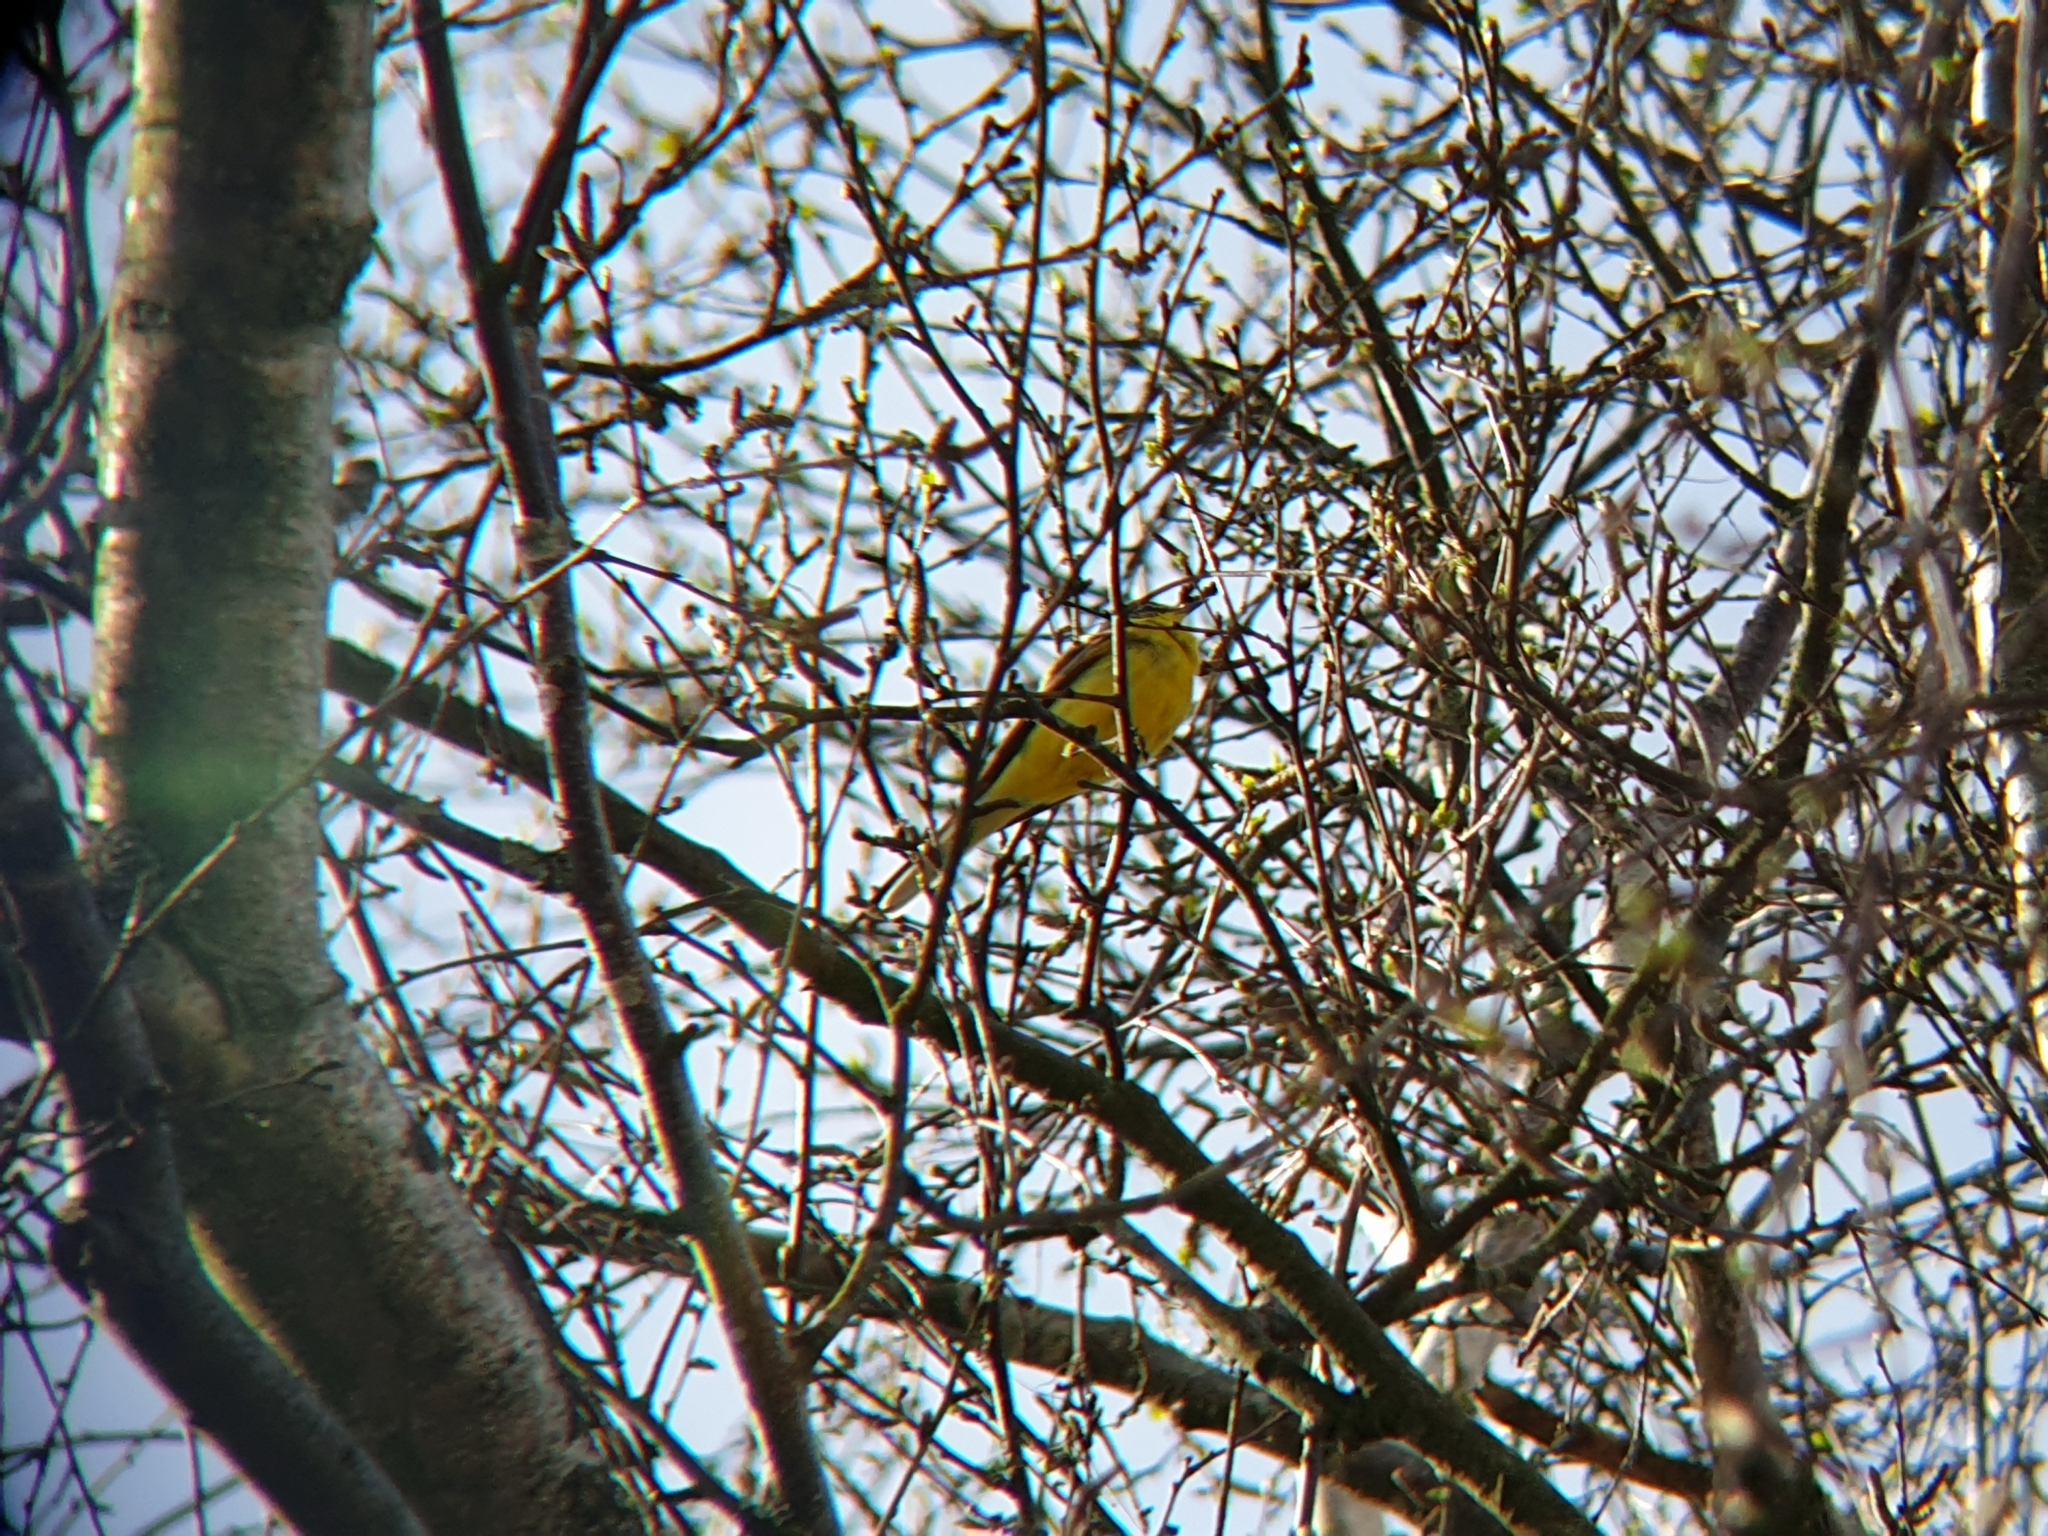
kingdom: Animalia
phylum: Chordata
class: Aves
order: Passeriformes
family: Motacillidae
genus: Motacilla
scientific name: Motacilla flava
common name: Western yellow wagtail
